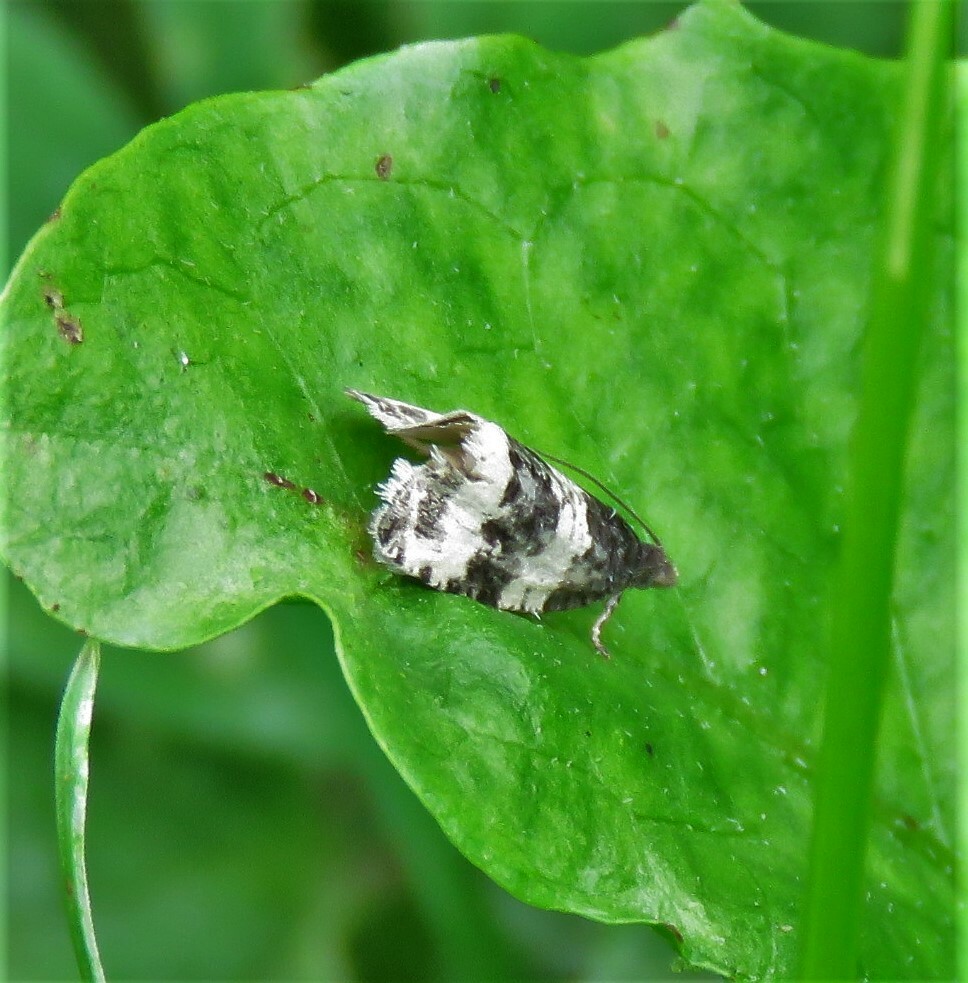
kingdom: Animalia
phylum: Arthropoda
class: Insecta
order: Lepidoptera
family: Tortricidae
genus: Olethreutes
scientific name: Olethreutes bipartitana
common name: Divided olethreutes moth
